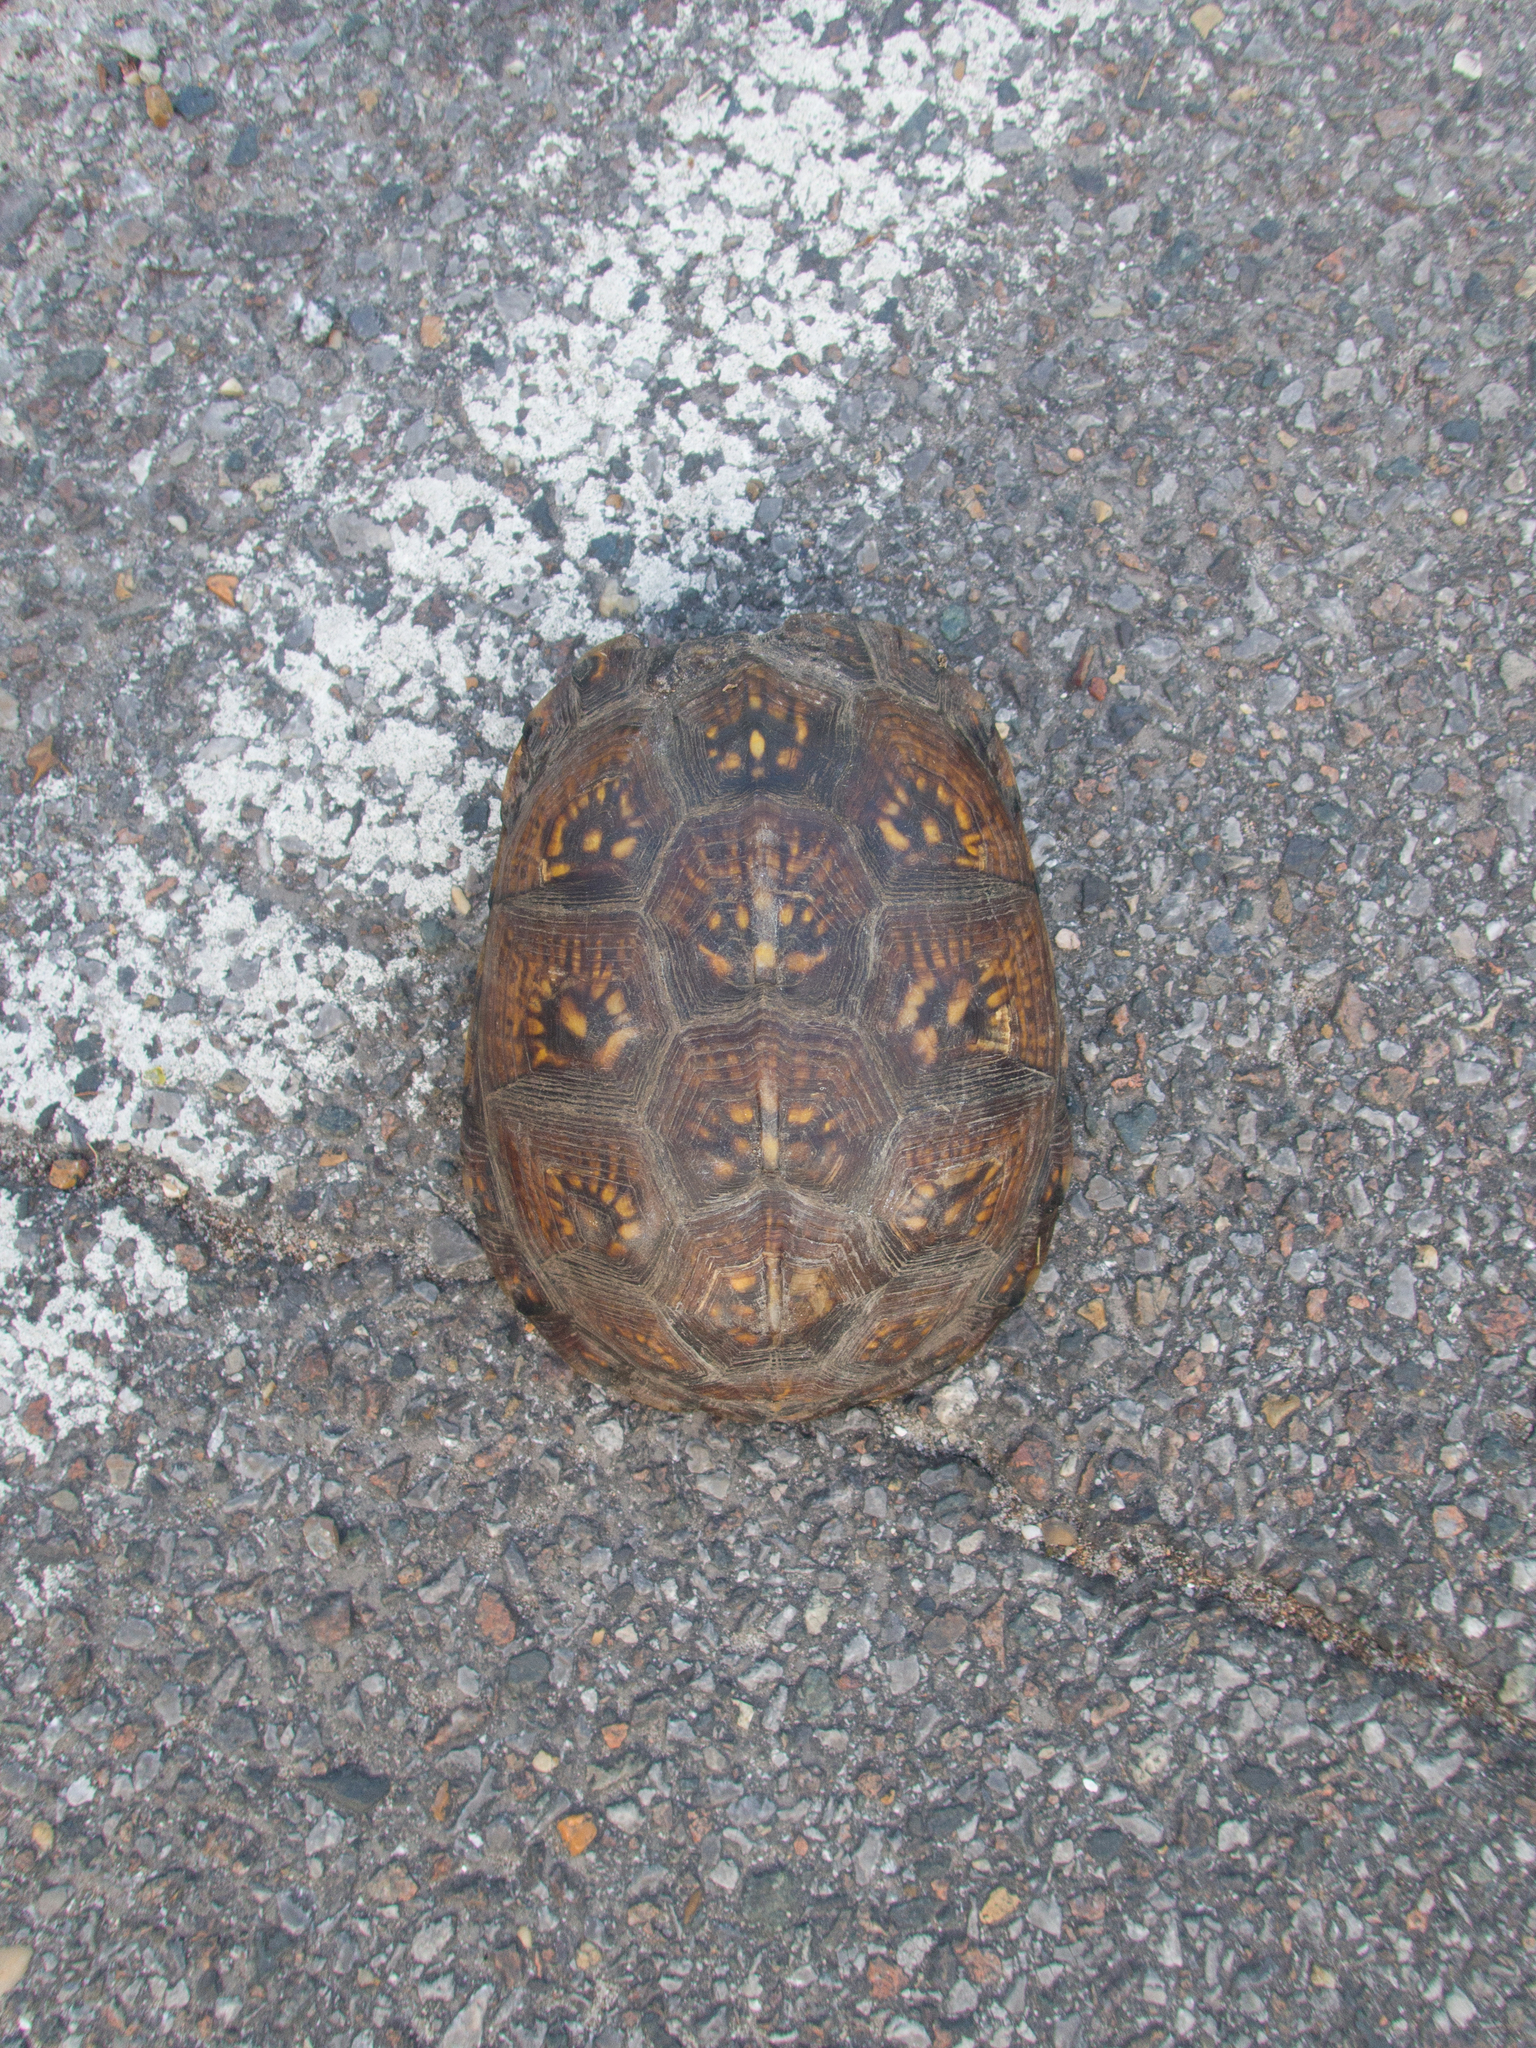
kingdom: Animalia
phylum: Chordata
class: Testudines
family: Emydidae
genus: Terrapene
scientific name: Terrapene carolina
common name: Common box turtle
